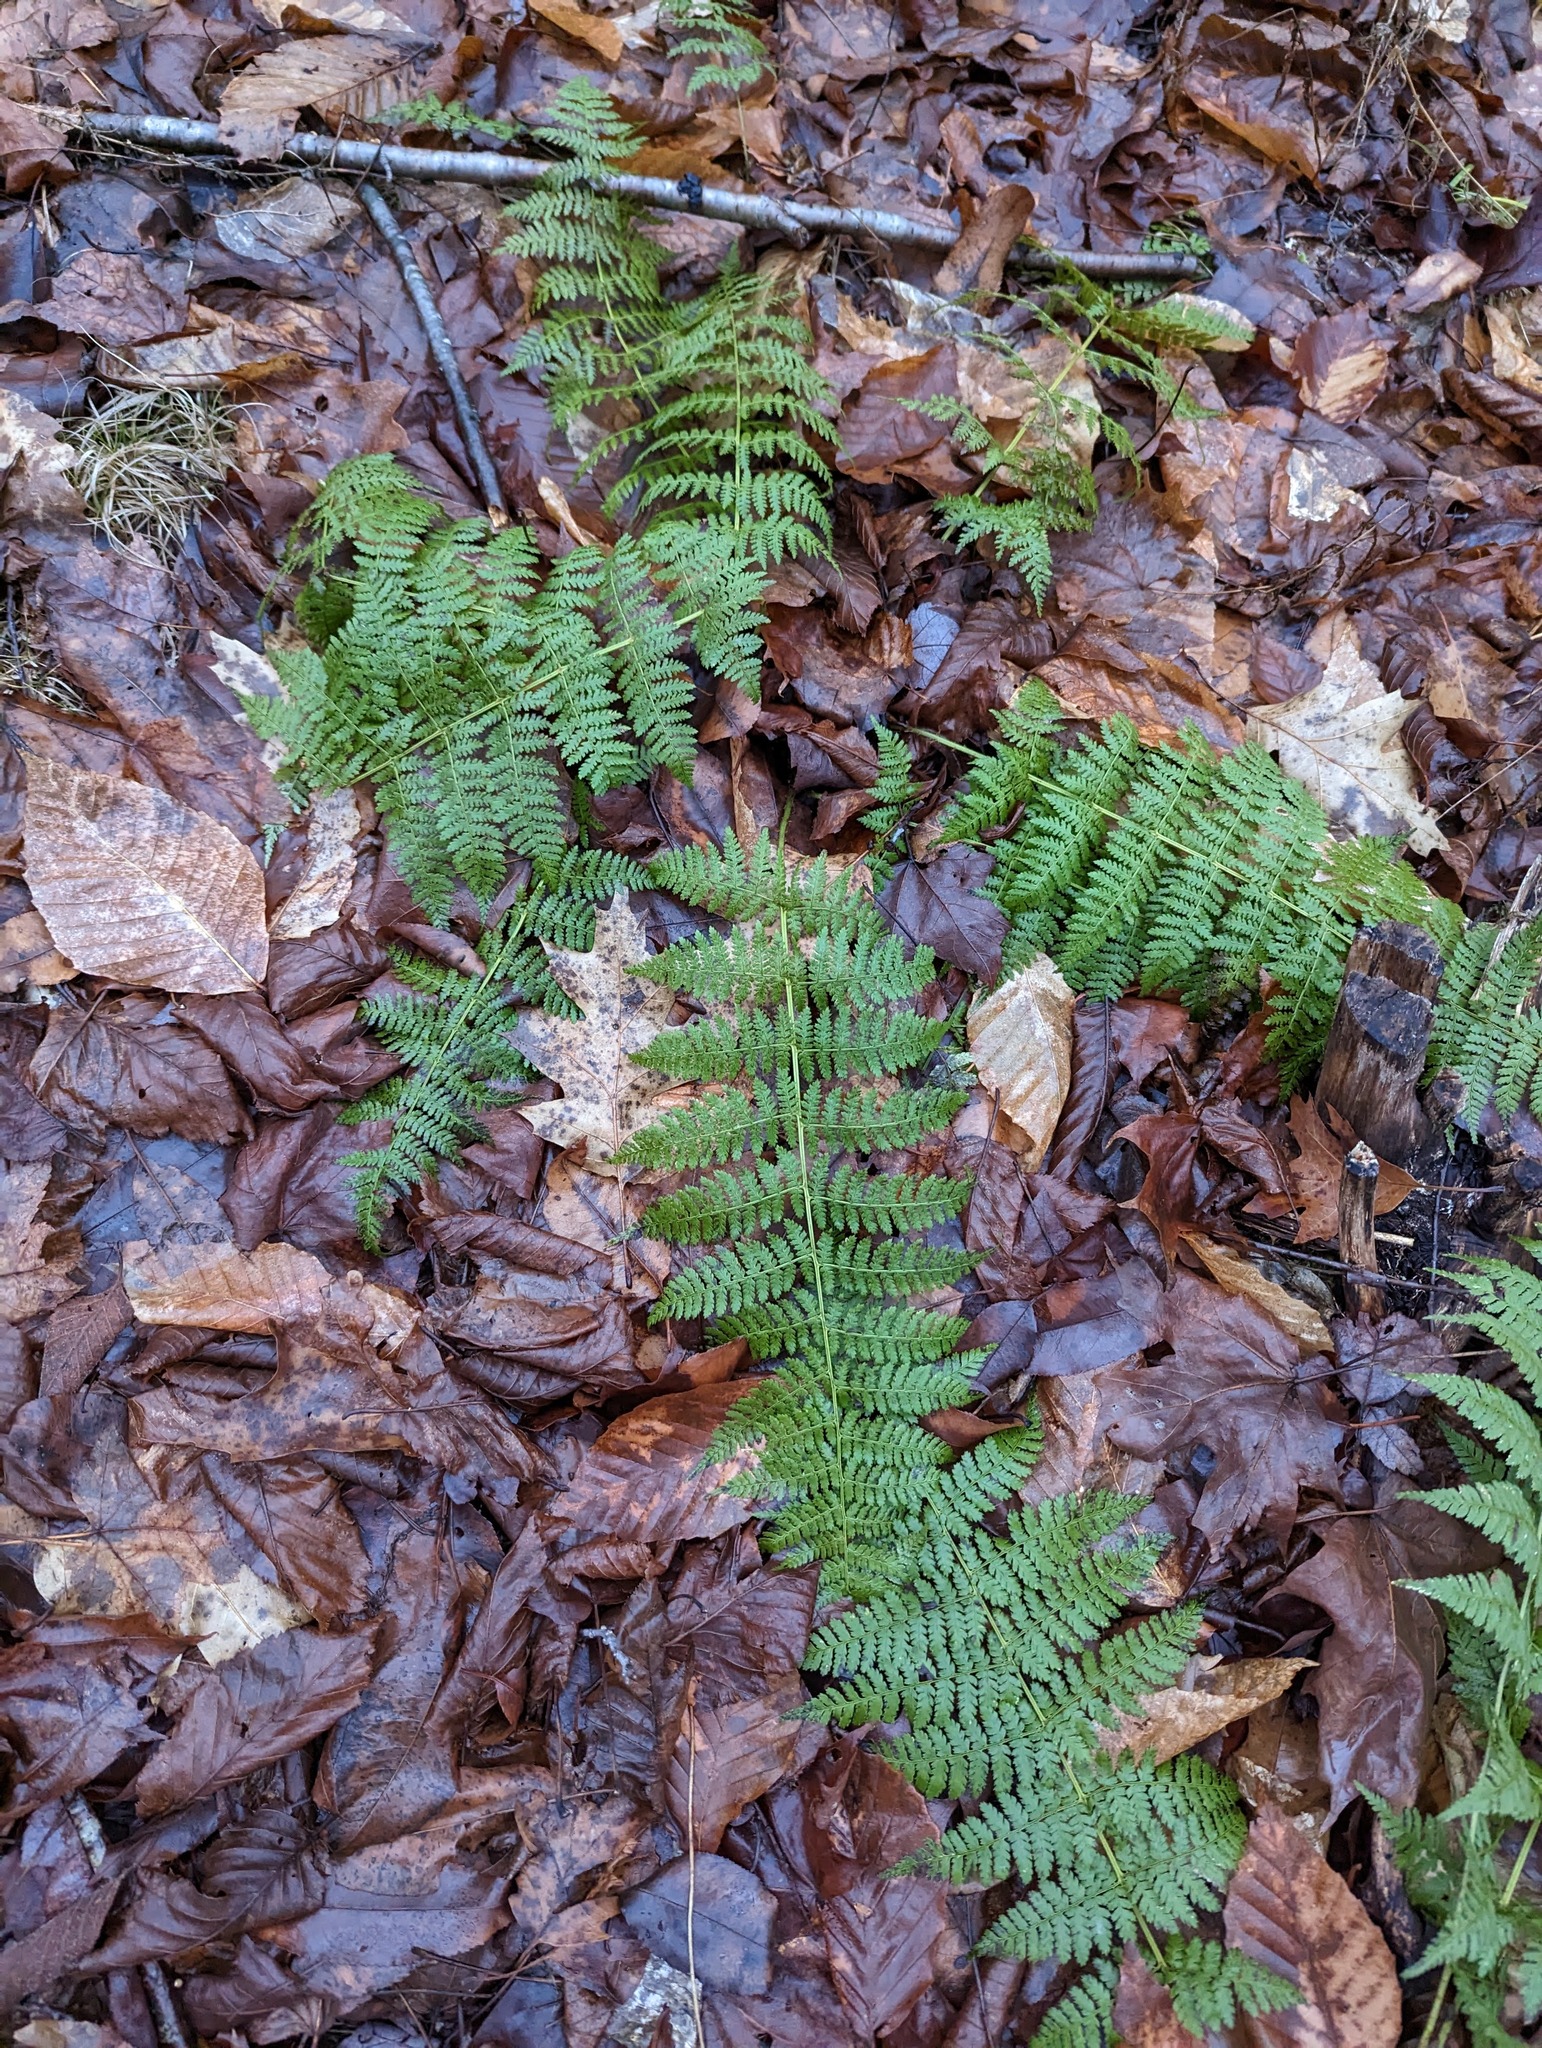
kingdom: Plantae
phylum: Tracheophyta
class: Polypodiopsida
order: Polypodiales
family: Dryopteridaceae
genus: Dryopteris
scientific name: Dryopteris intermedia
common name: Evergreen wood fern
